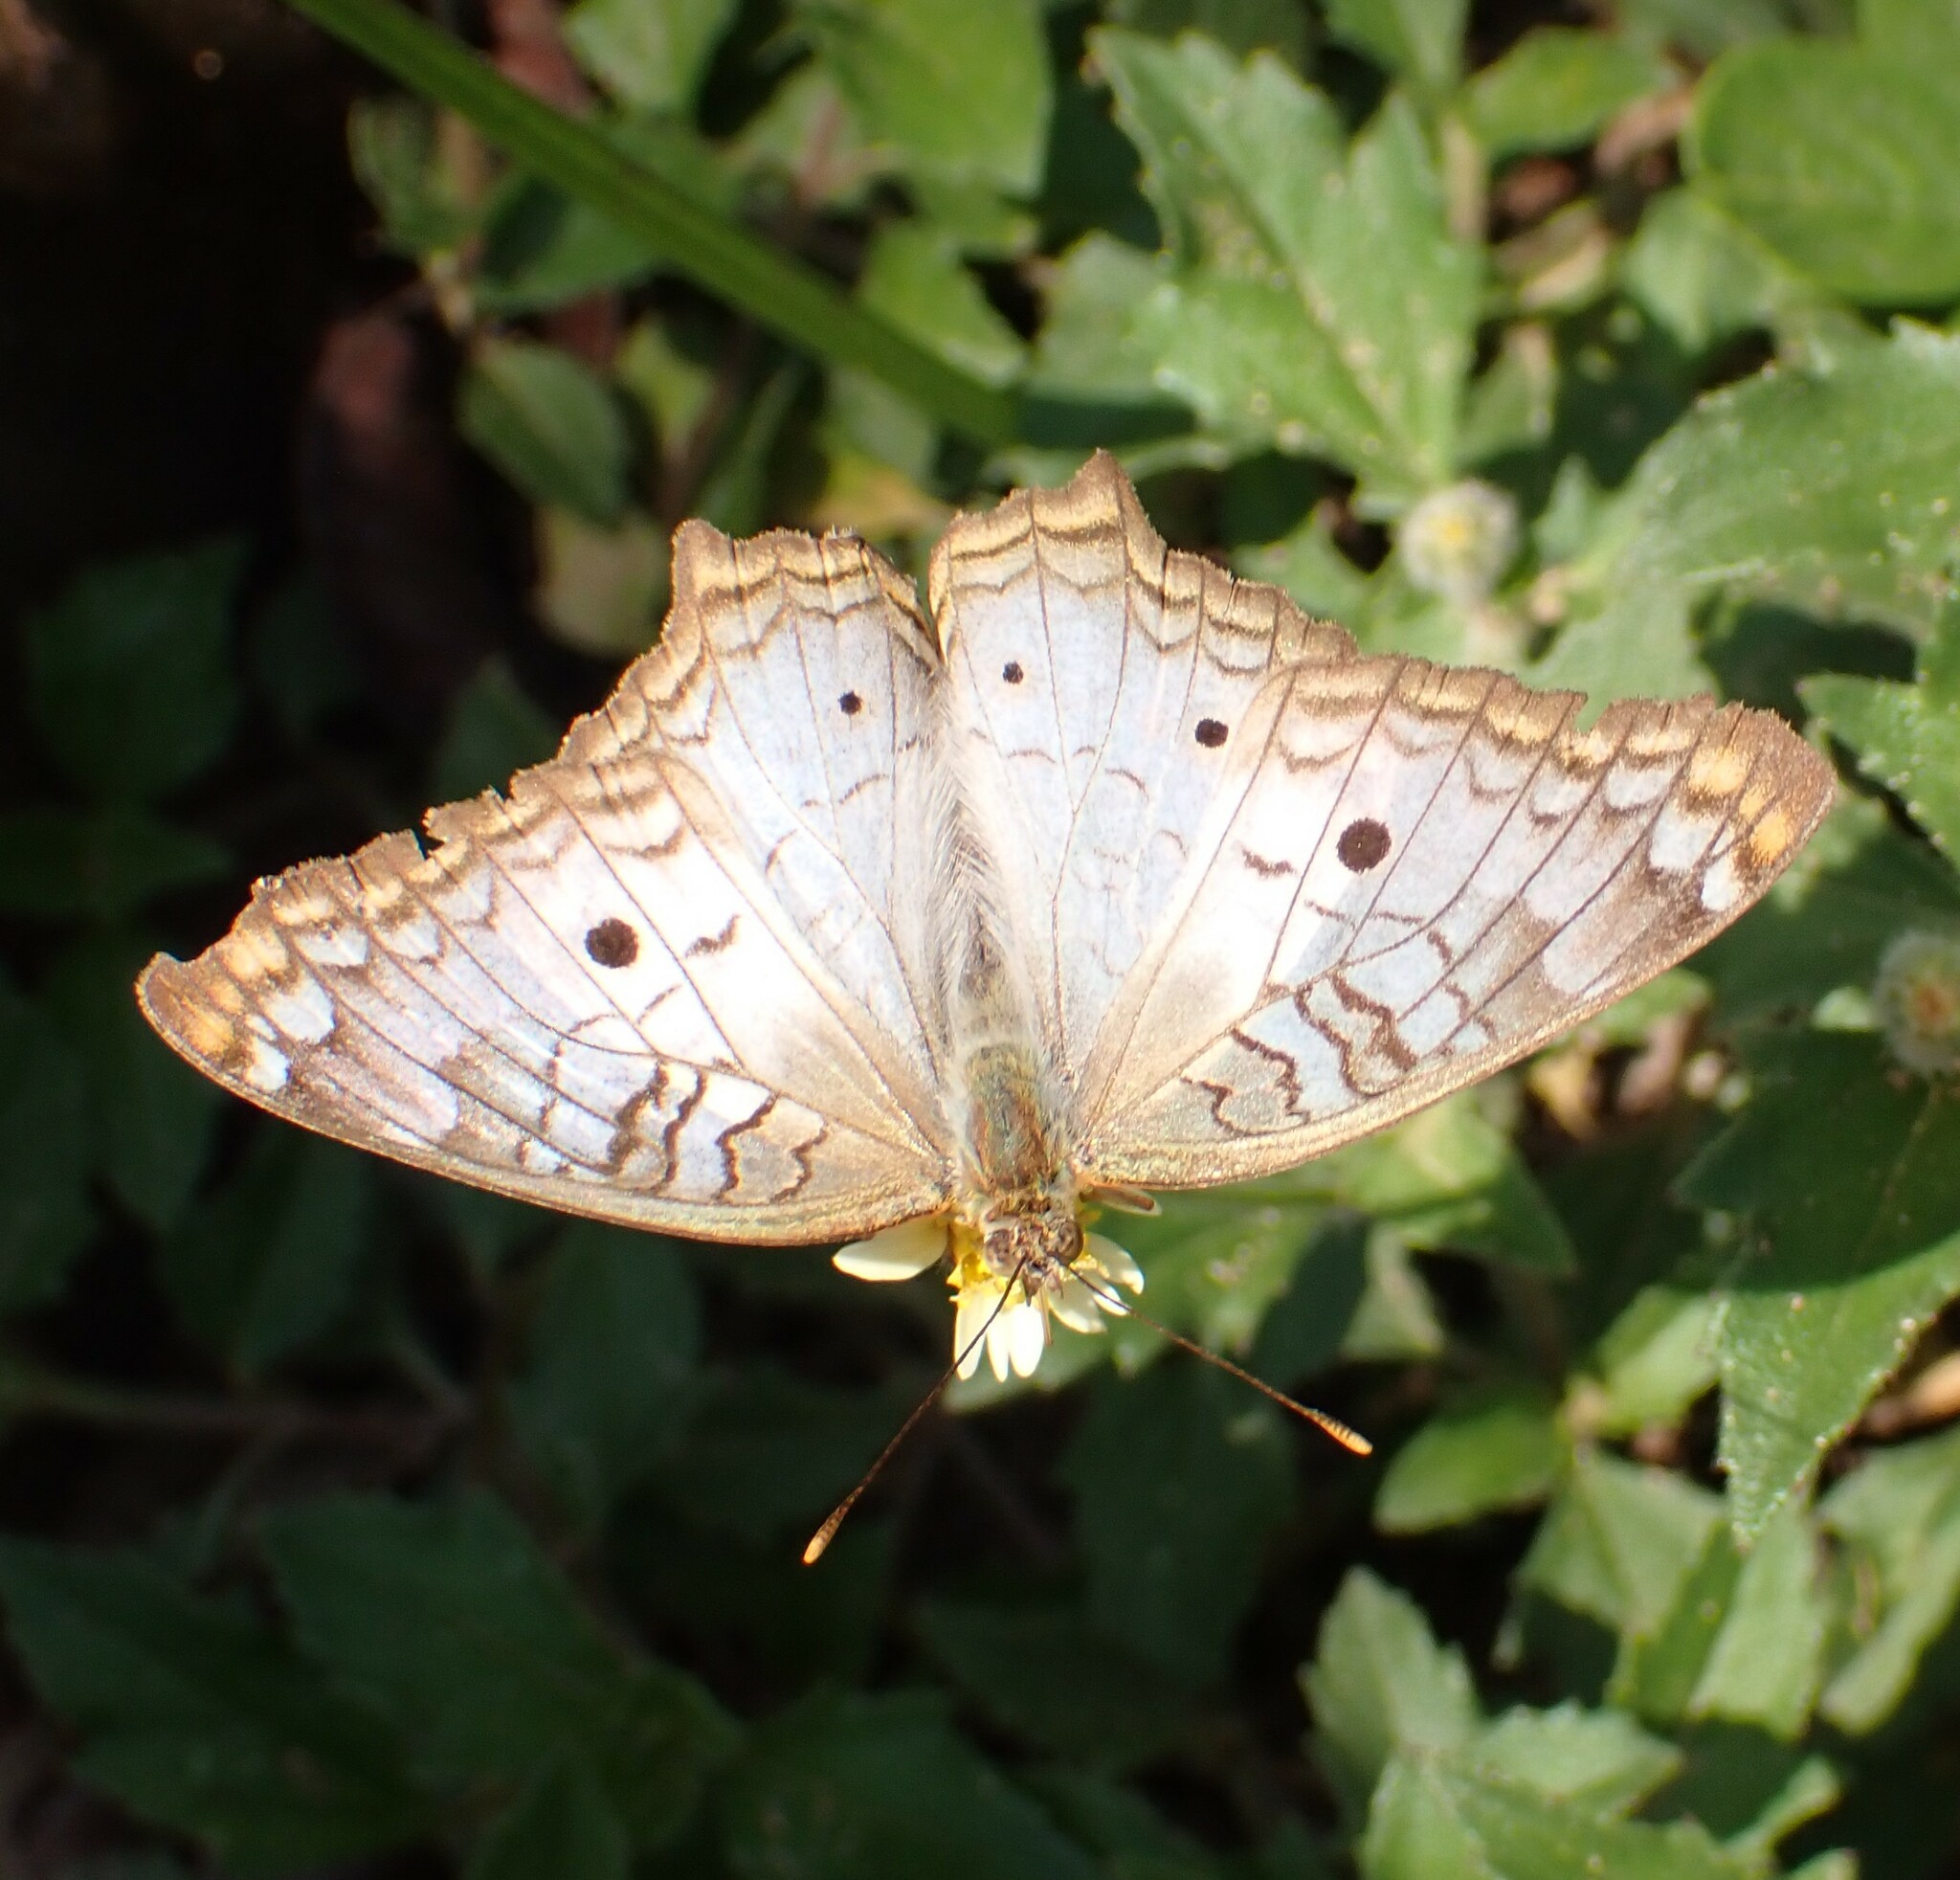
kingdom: Animalia
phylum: Arthropoda
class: Insecta
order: Lepidoptera
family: Nymphalidae
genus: Anartia
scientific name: Anartia jatrophae
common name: White peacock
